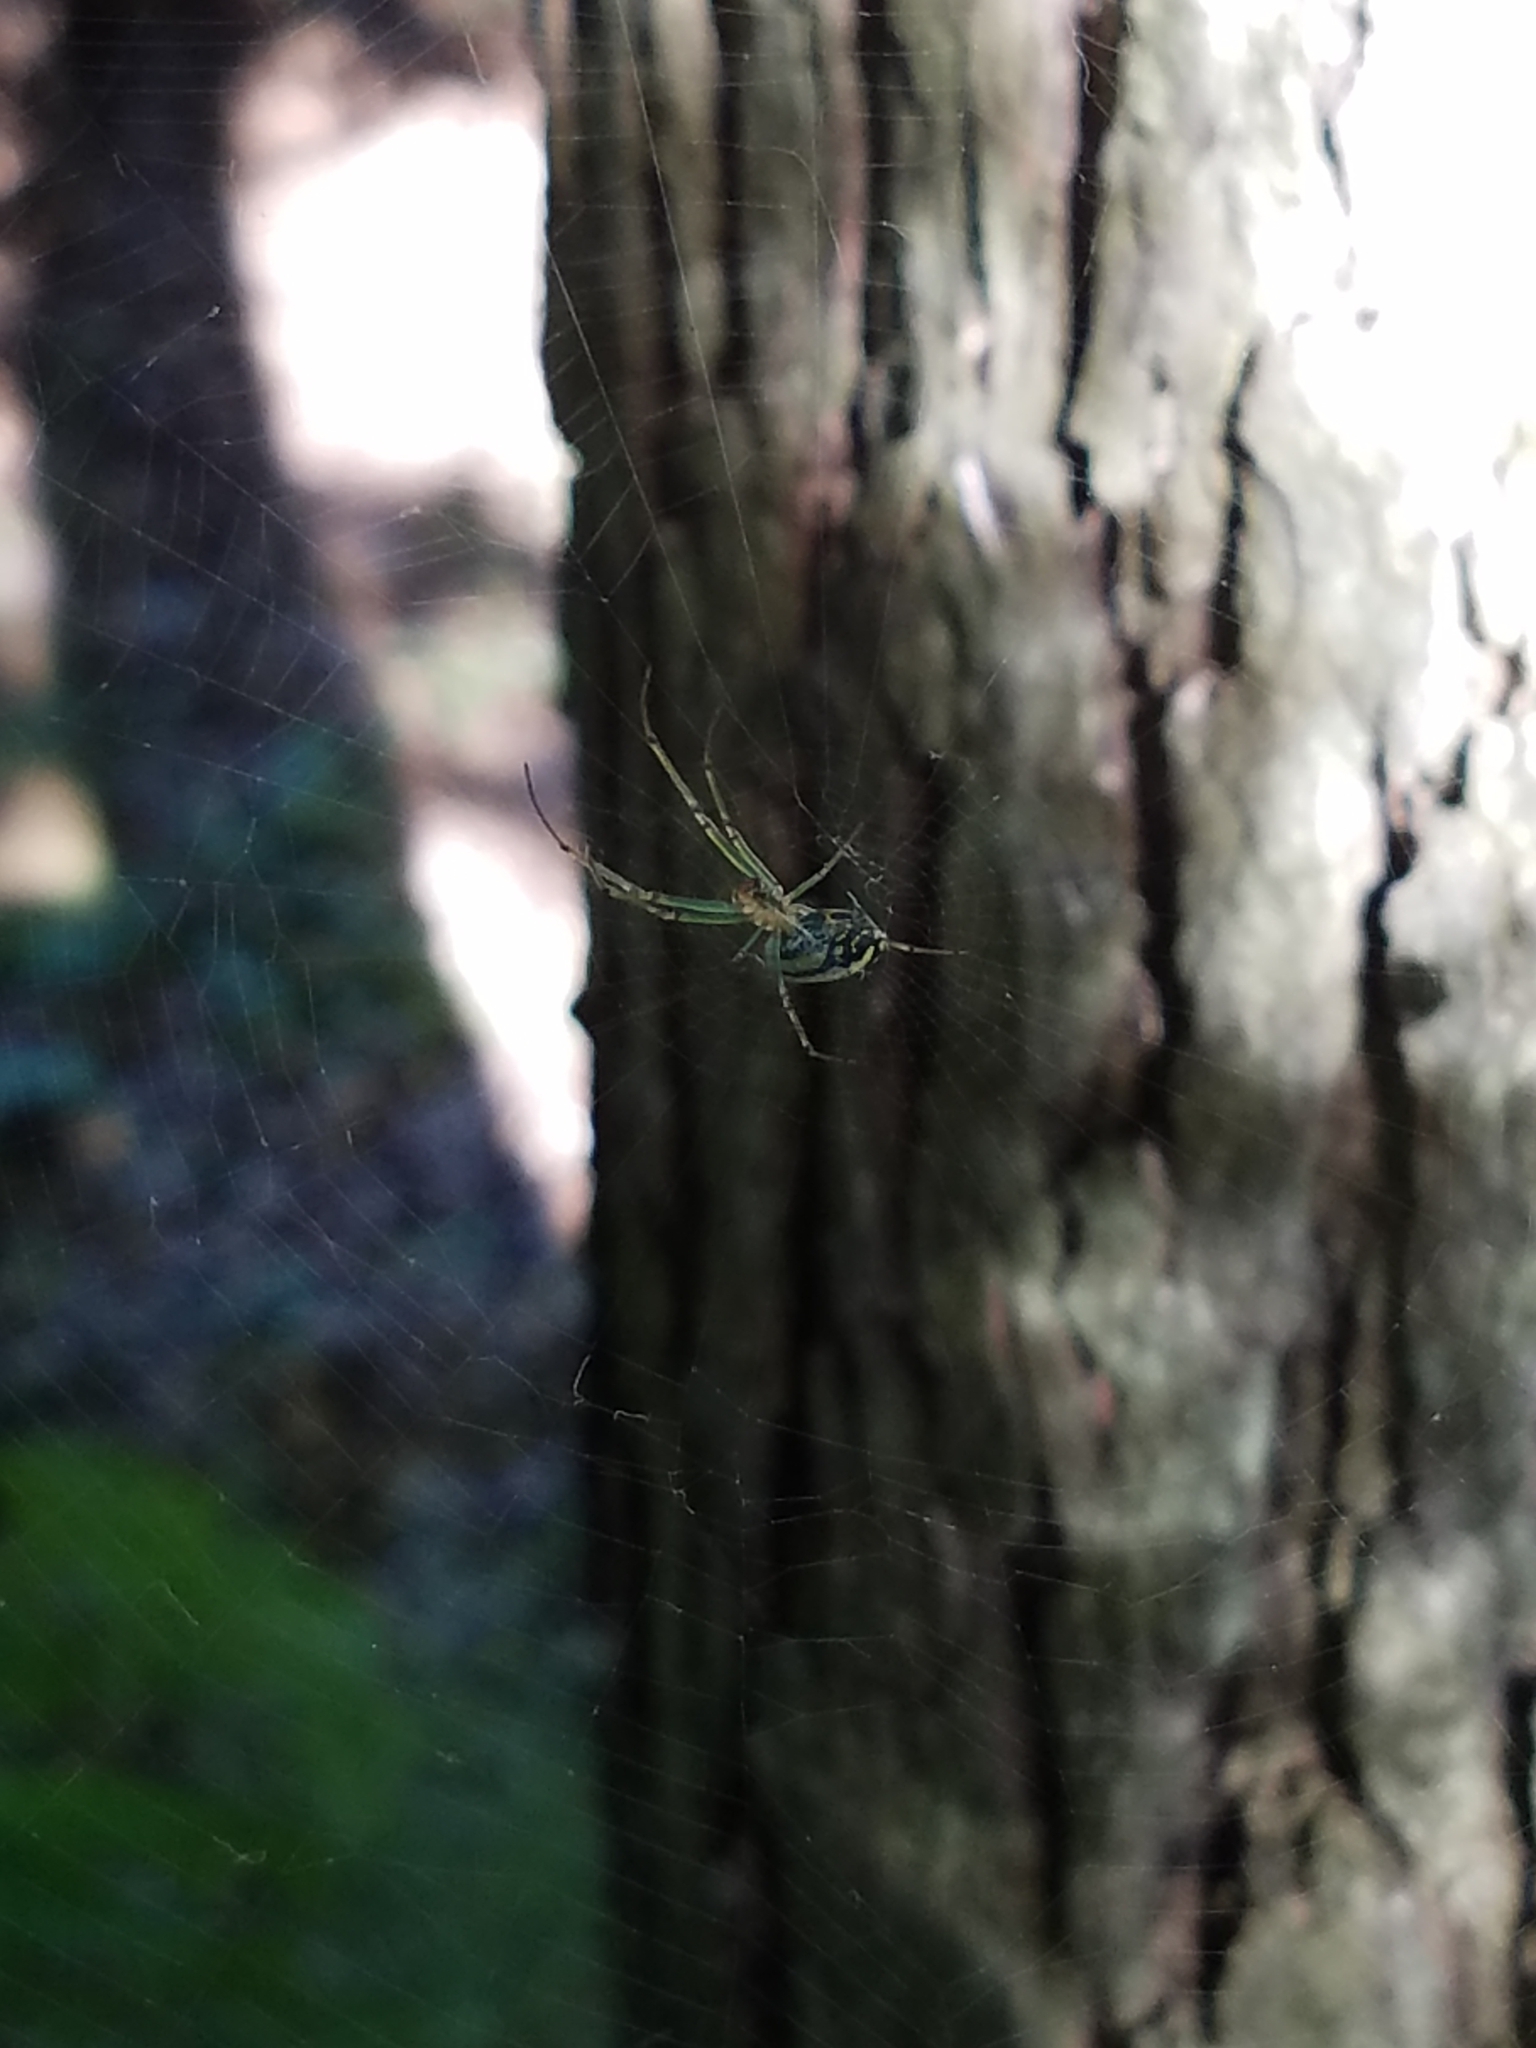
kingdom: Animalia
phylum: Arthropoda
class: Arachnida
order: Araneae
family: Tetragnathidae
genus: Leucauge
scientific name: Leucauge venusta
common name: Longjawed orb weavers
